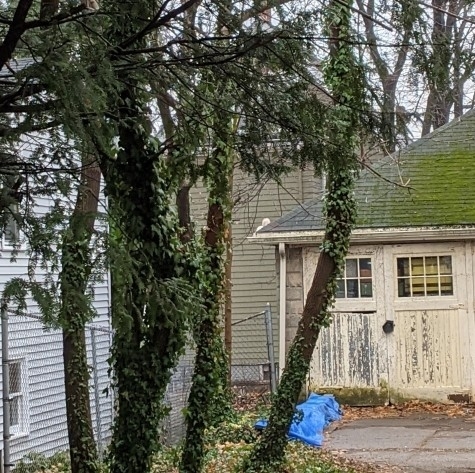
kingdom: Animalia
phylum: Chordata
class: Mammalia
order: Rodentia
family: Sciuridae
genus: Sciurus
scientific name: Sciurus carolinensis
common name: Eastern gray squirrel
